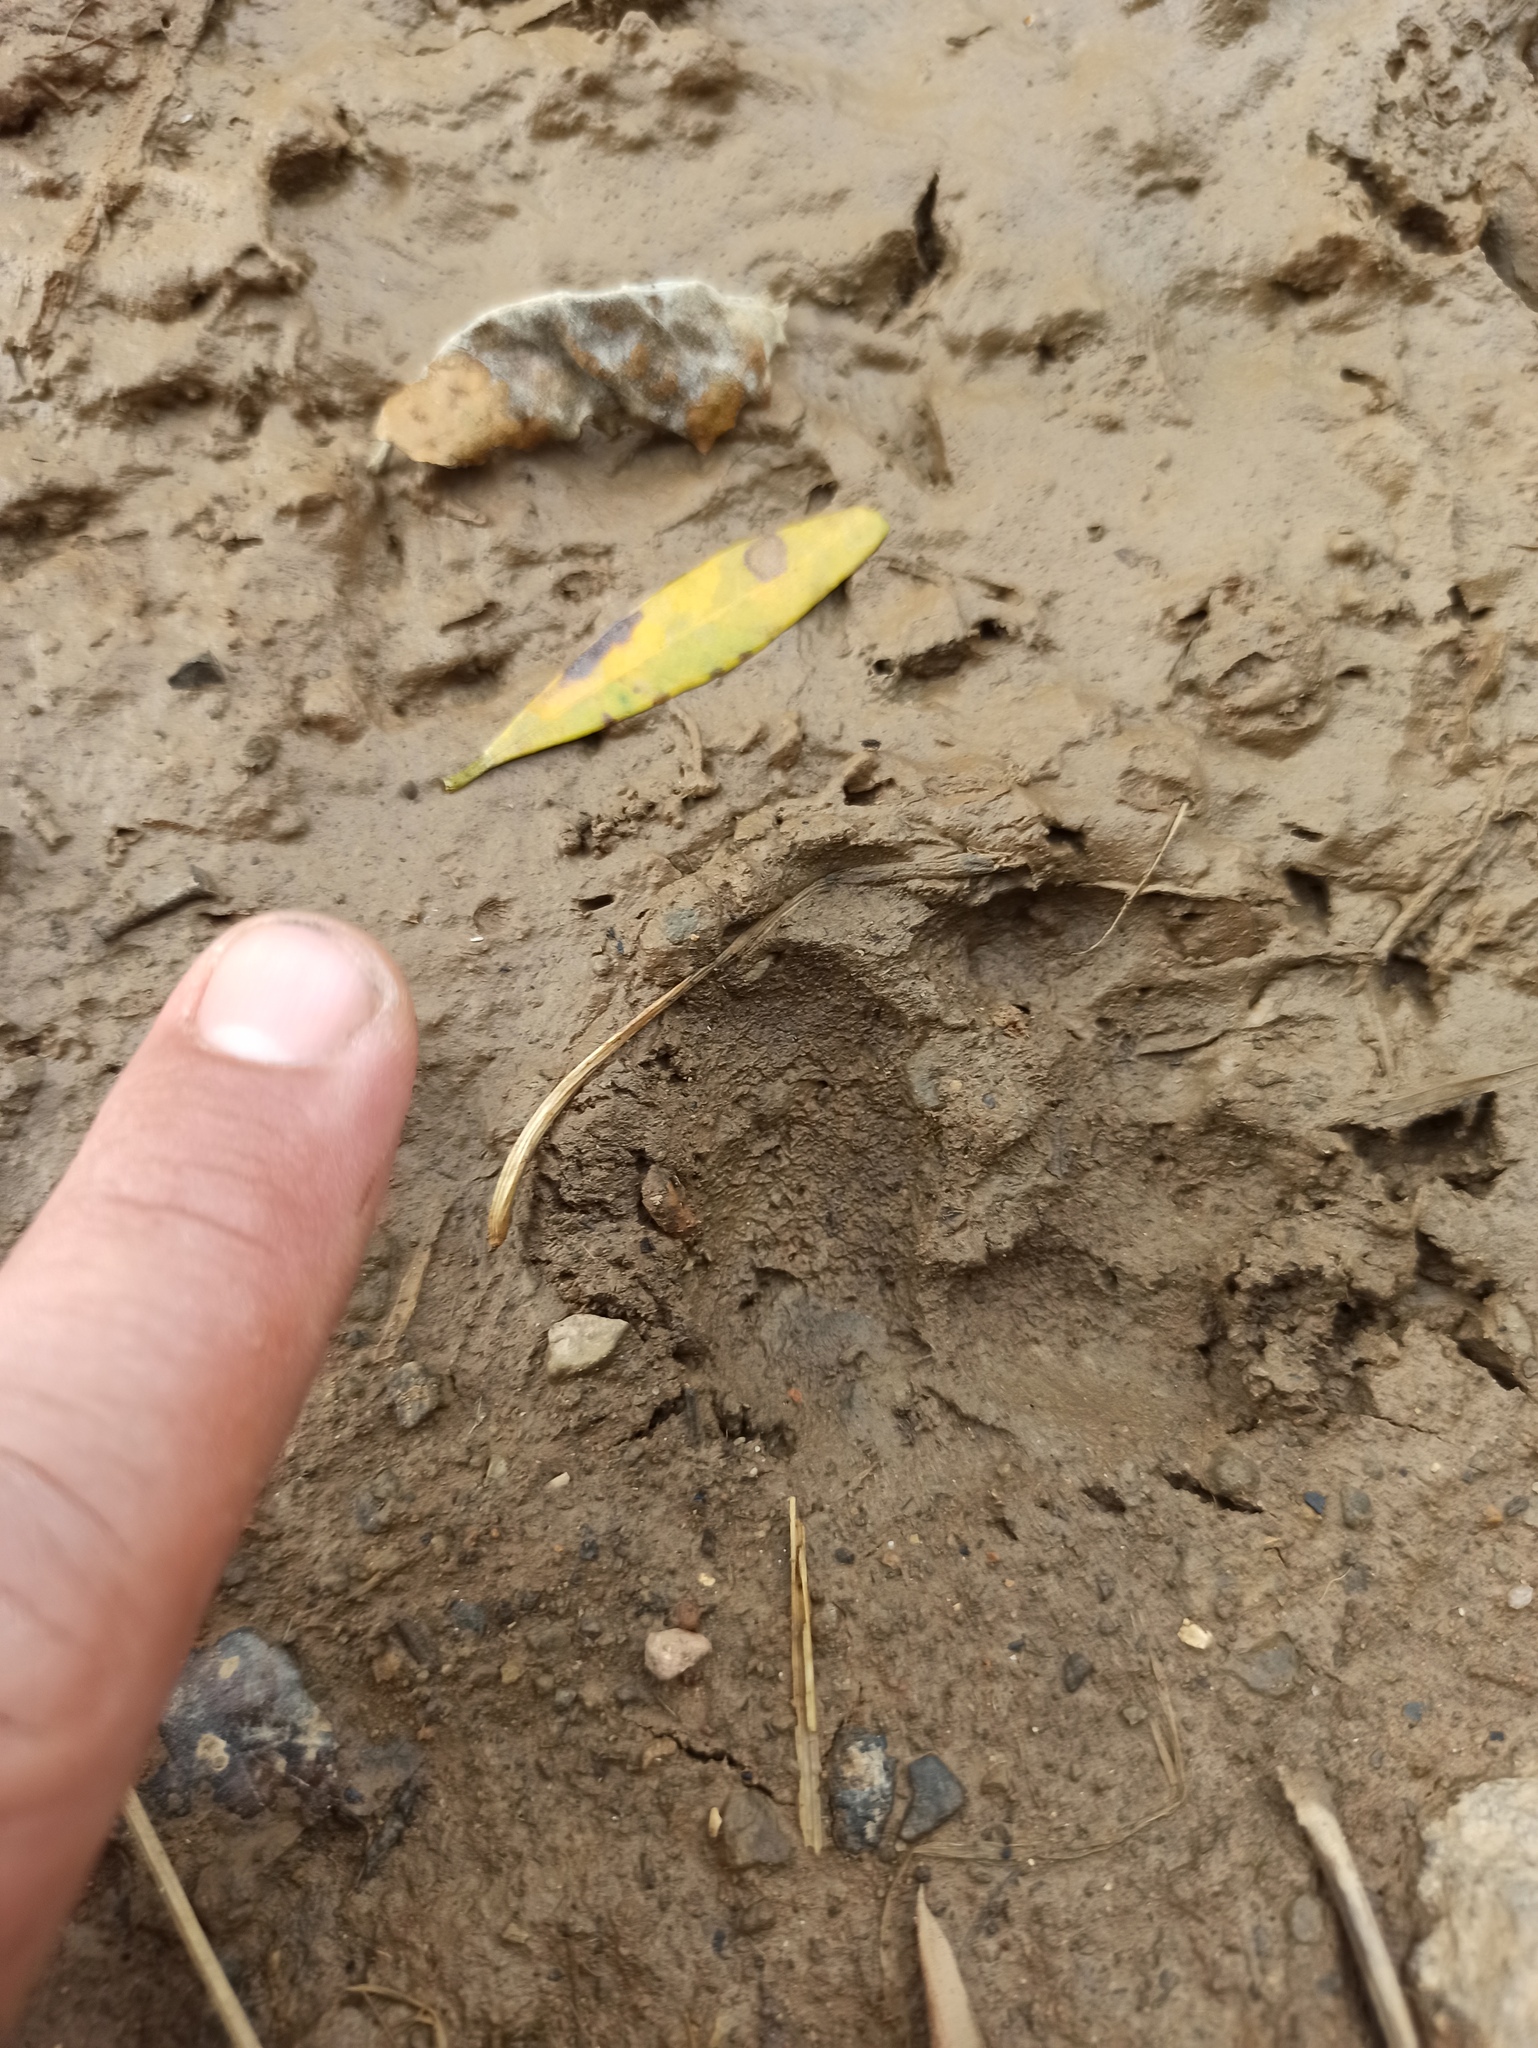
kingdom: Animalia
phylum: Chordata
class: Mammalia
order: Carnivora
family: Mustelidae
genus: Meles
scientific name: Meles meles
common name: Eurasian badger
